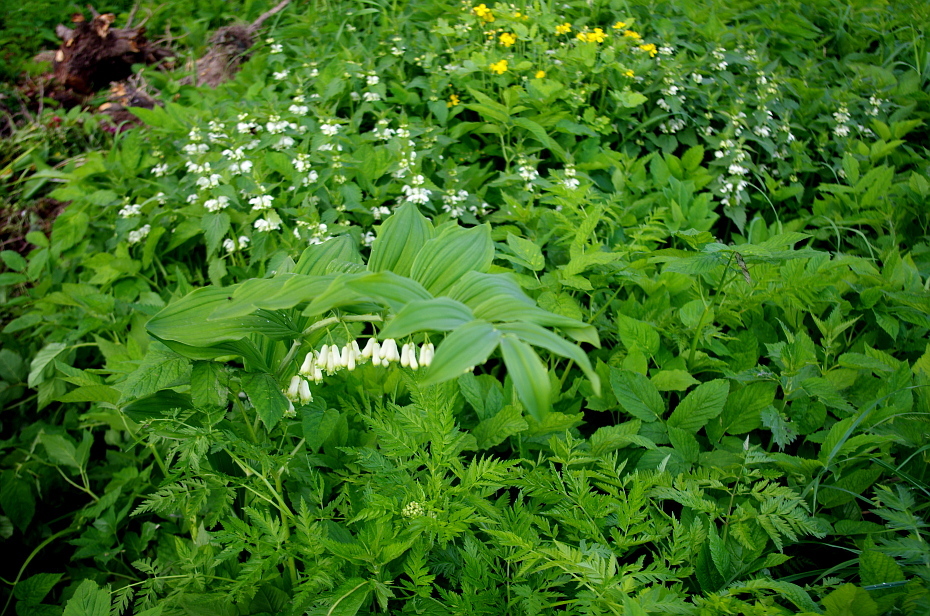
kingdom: Plantae
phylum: Tracheophyta
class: Liliopsida
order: Asparagales
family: Asparagaceae
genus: Polygonatum
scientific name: Polygonatum multiflorum
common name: Solomon's-seal
